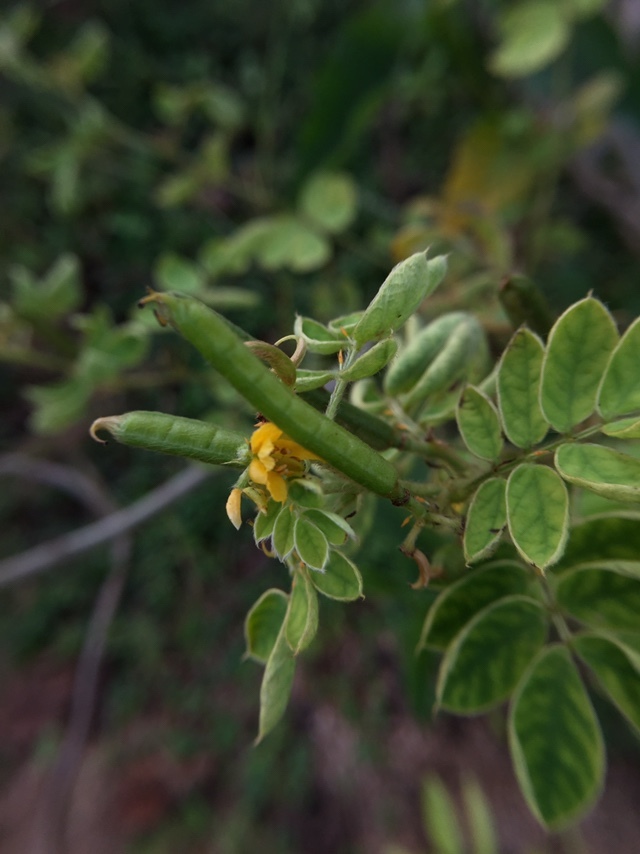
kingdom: Plantae
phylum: Tracheophyta
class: Magnoliopsida
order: Fabales
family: Fabaceae
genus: Senna
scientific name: Senna uniflora
